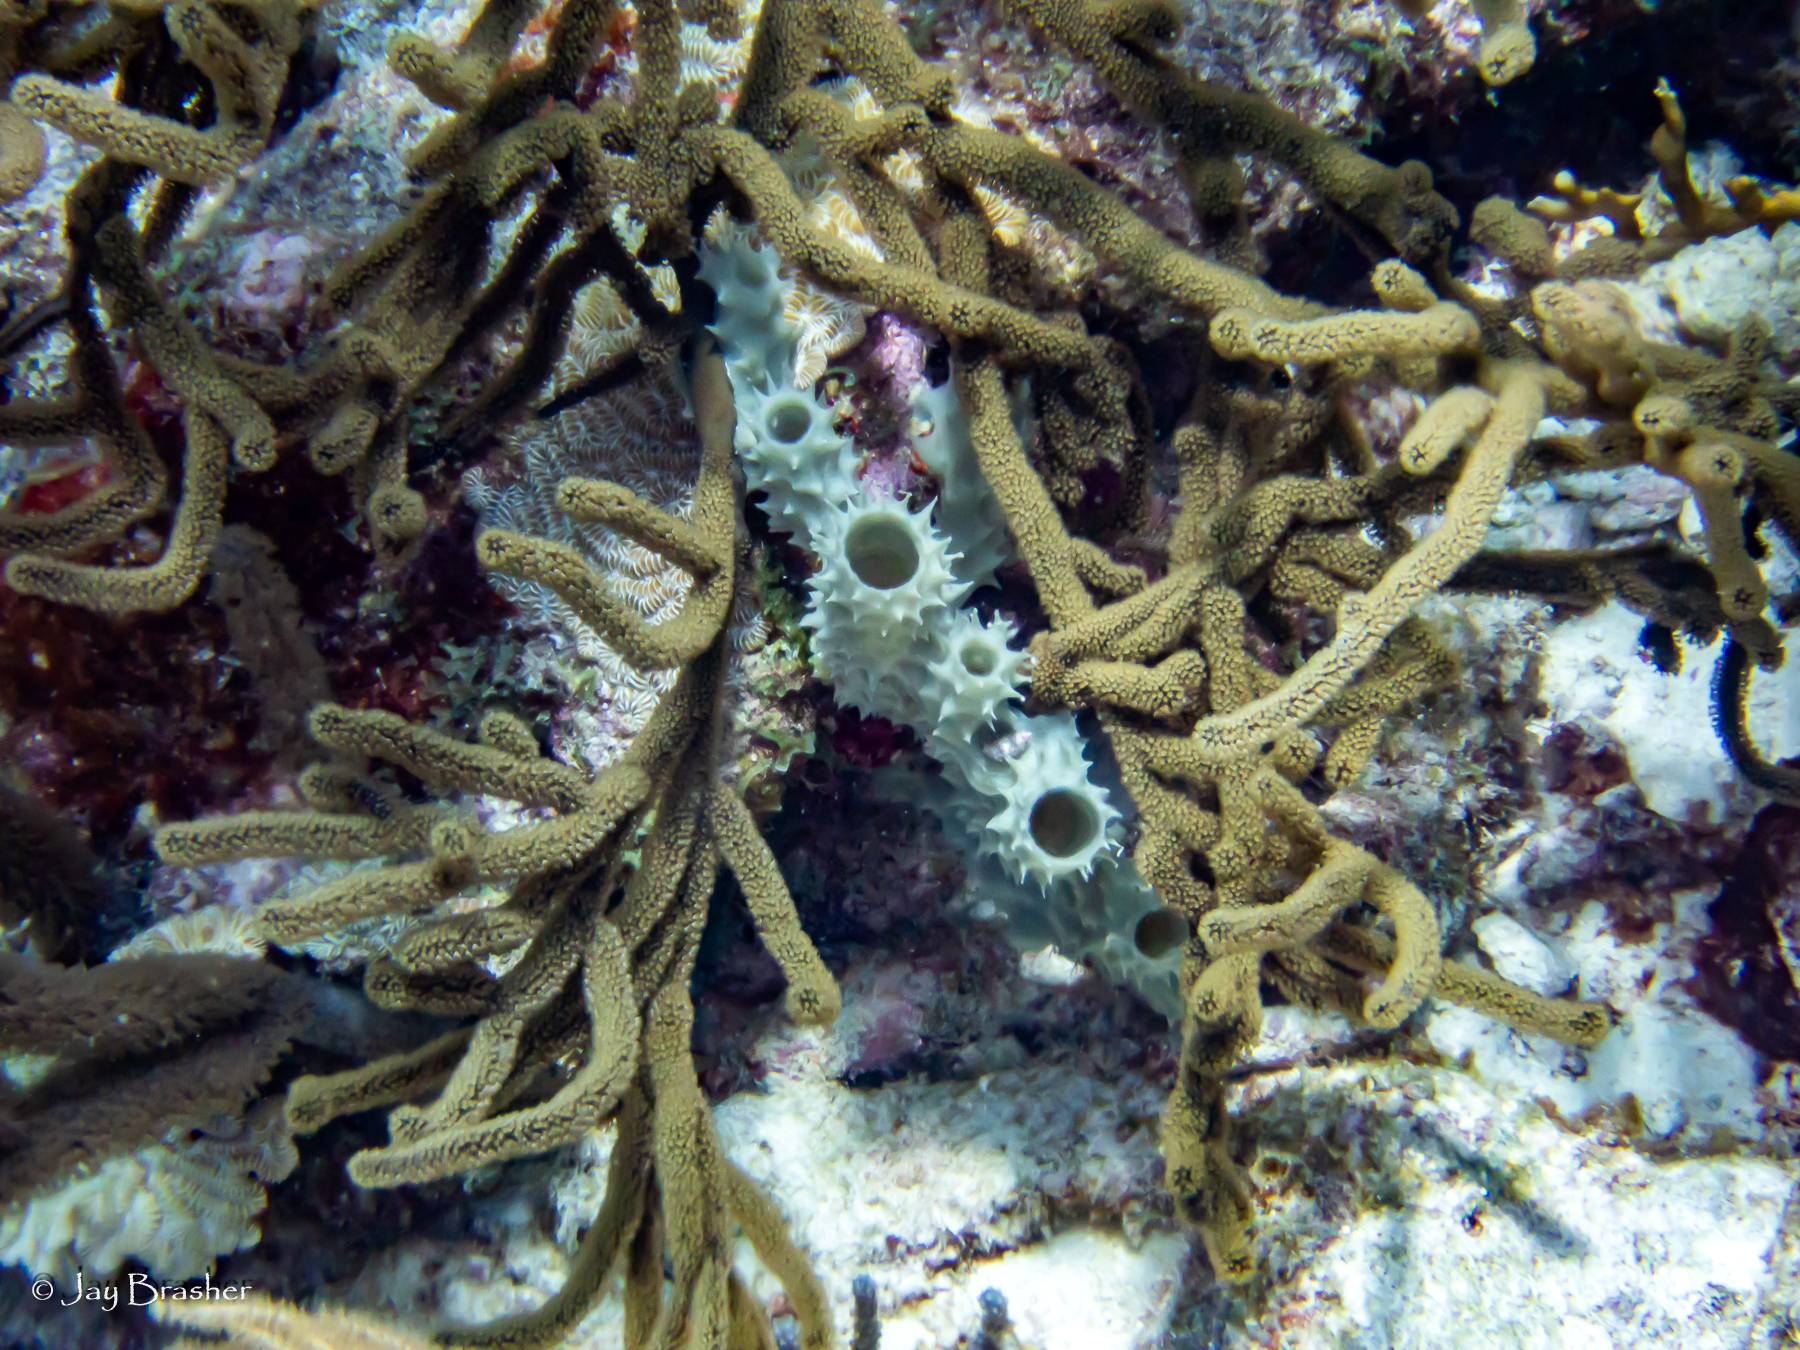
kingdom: Animalia
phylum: Porifera
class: Demospongiae
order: Haplosclerida
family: Callyspongiidae
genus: Callyspongia
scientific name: Callyspongia aculeata
